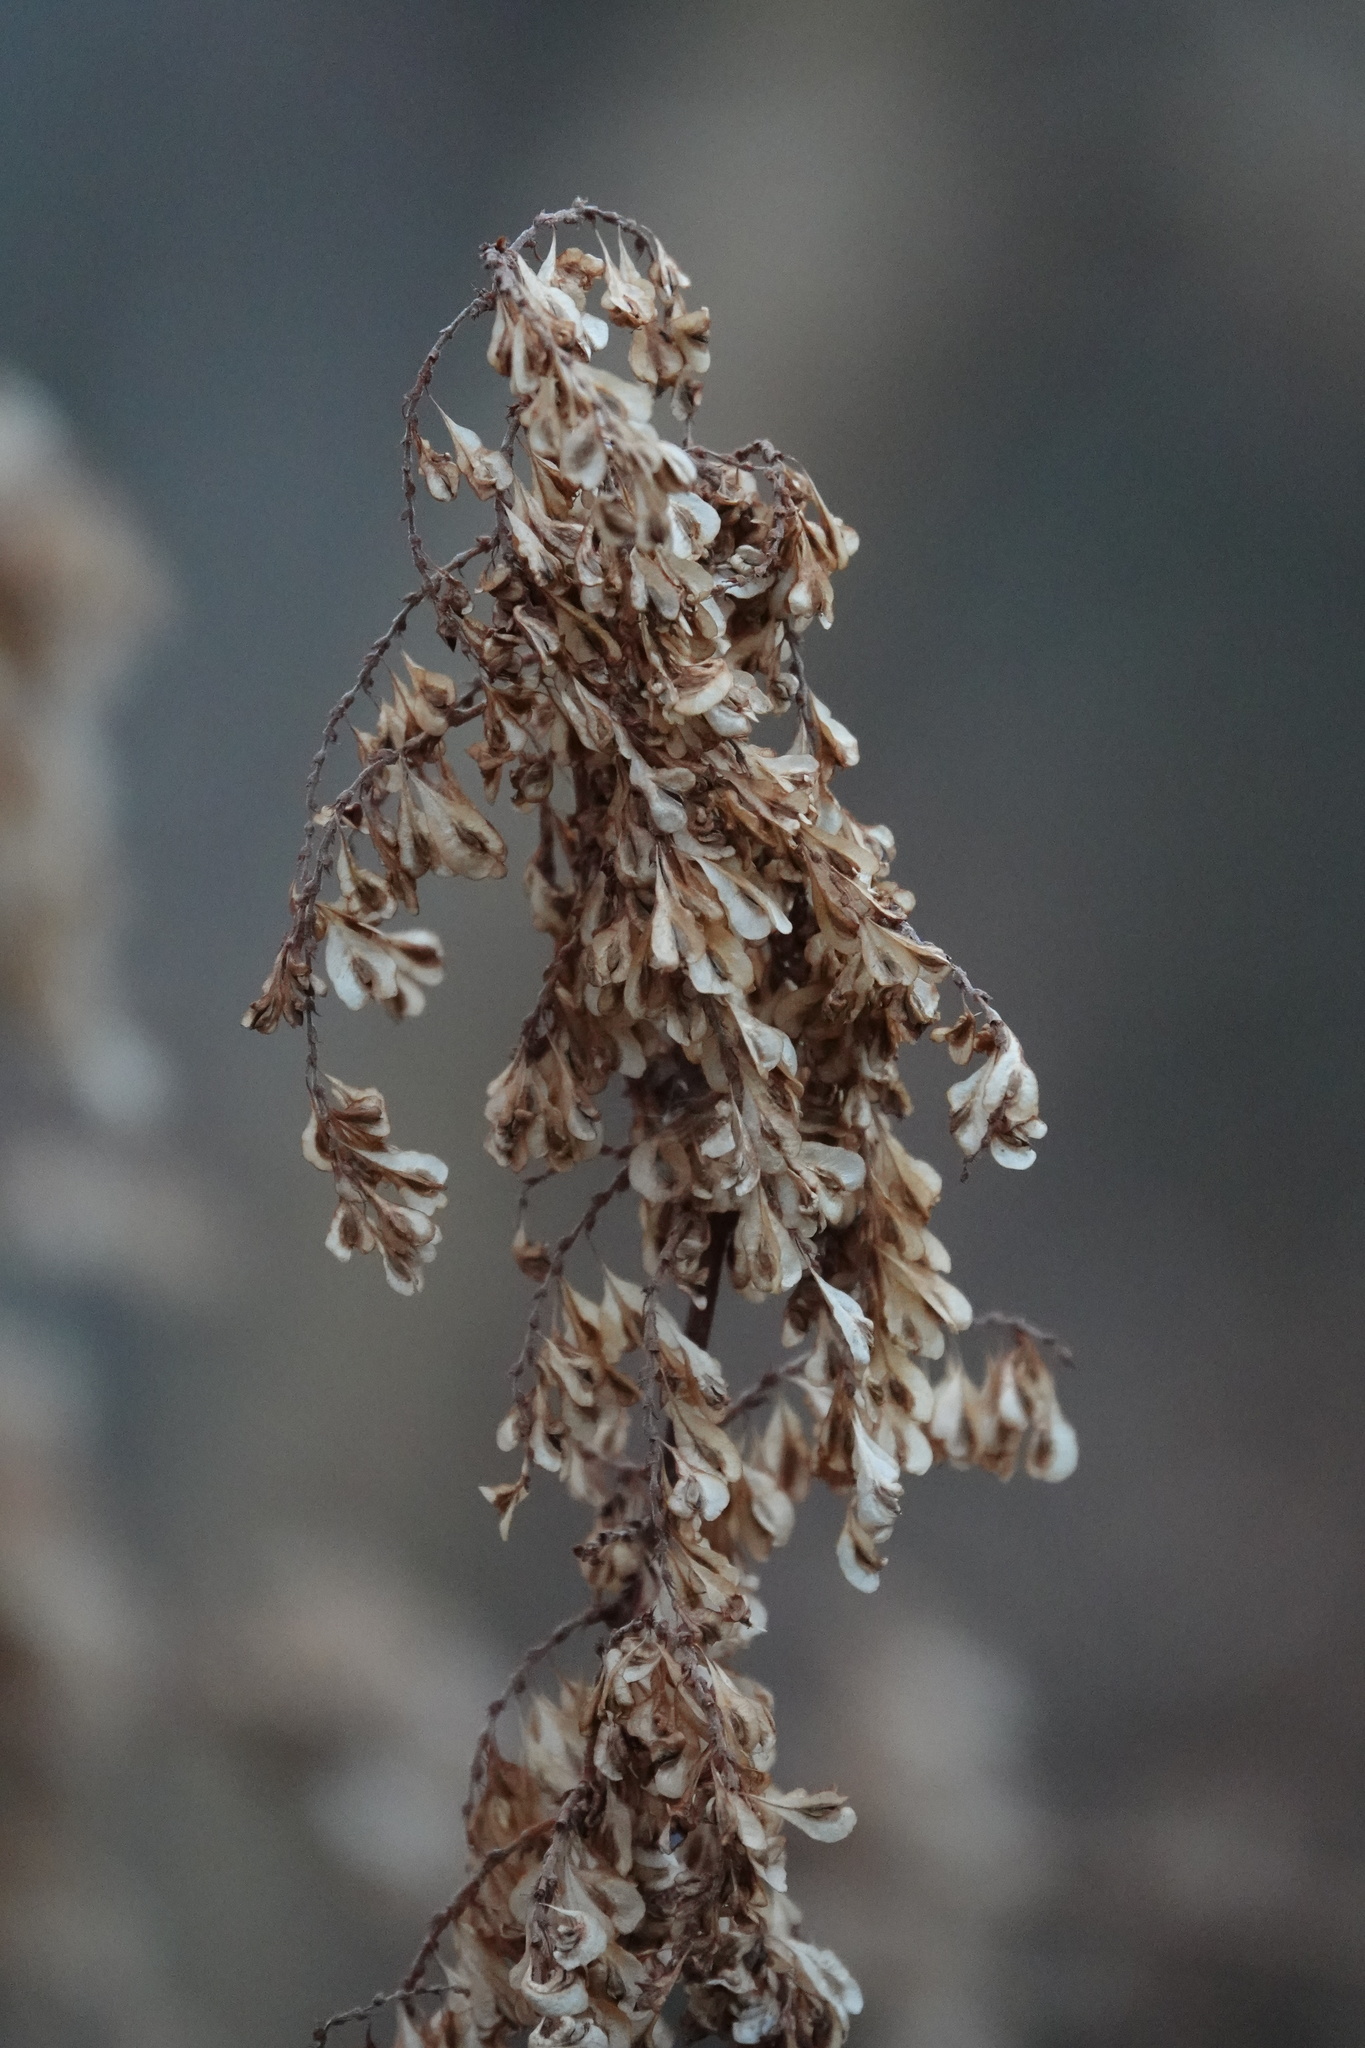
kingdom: Plantae
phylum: Tracheophyta
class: Magnoliopsida
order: Caryophyllales
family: Polygonaceae
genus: Reynoutria
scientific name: Reynoutria japonica
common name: Japanese knotweed
